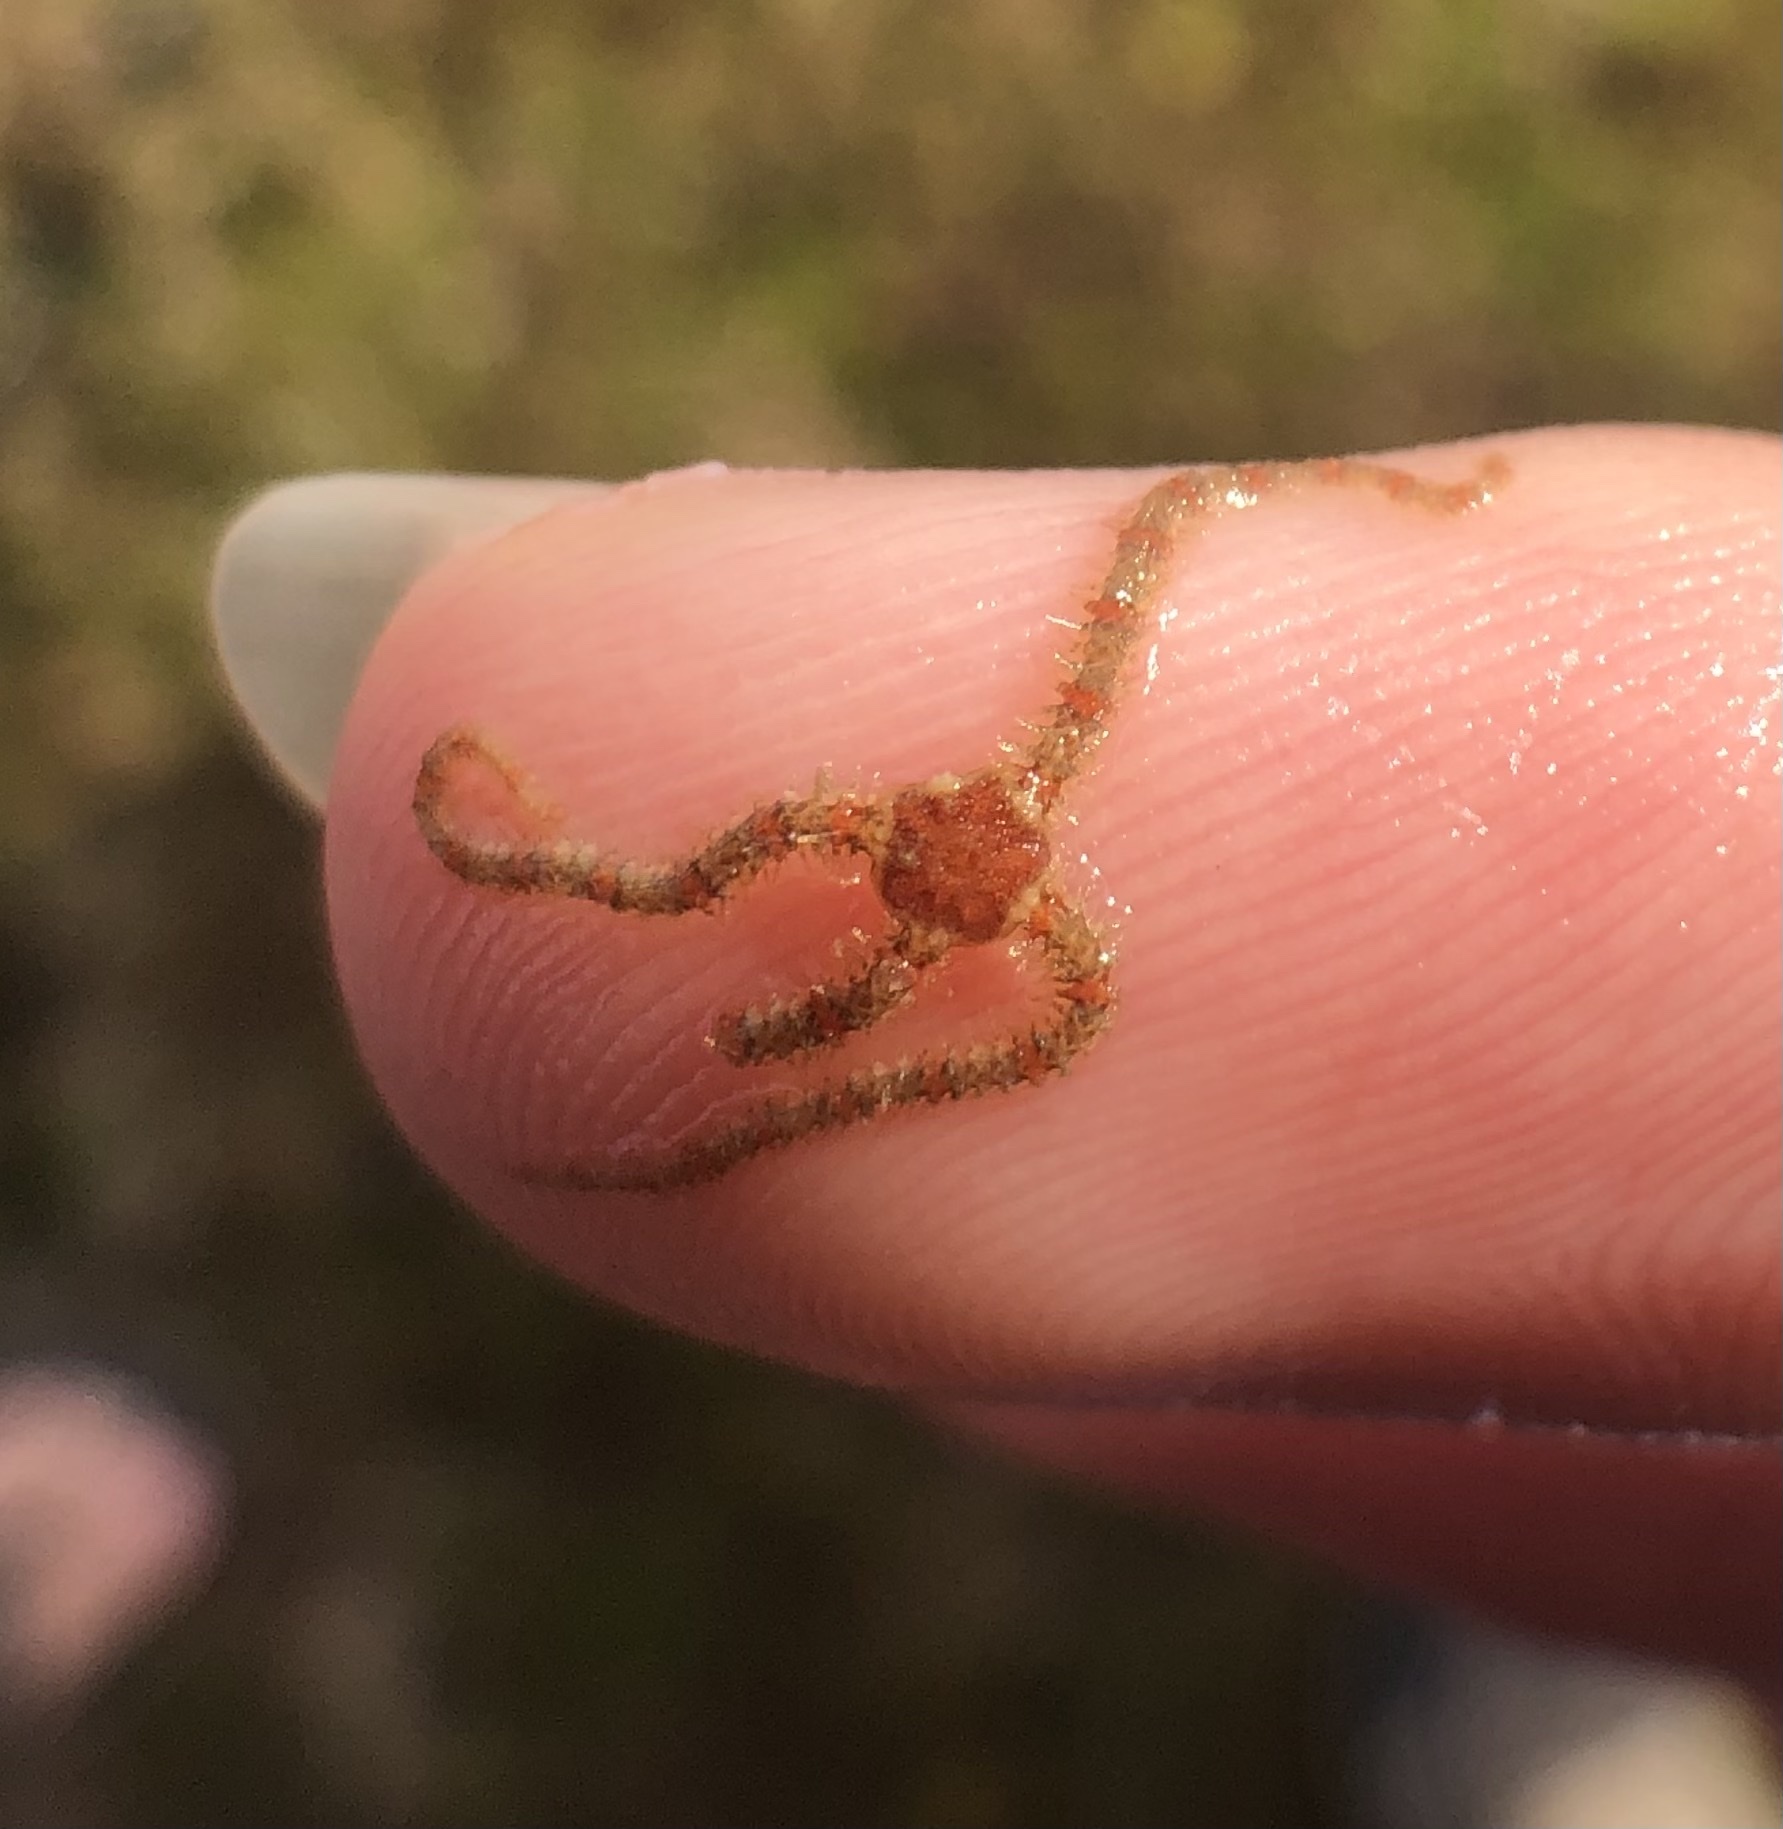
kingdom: Animalia
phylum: Echinodermata
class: Ophiuroidea
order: Amphilepidida
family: Ophiotrichidae
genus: Ophiothrix
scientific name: Ophiothrix spiculata
